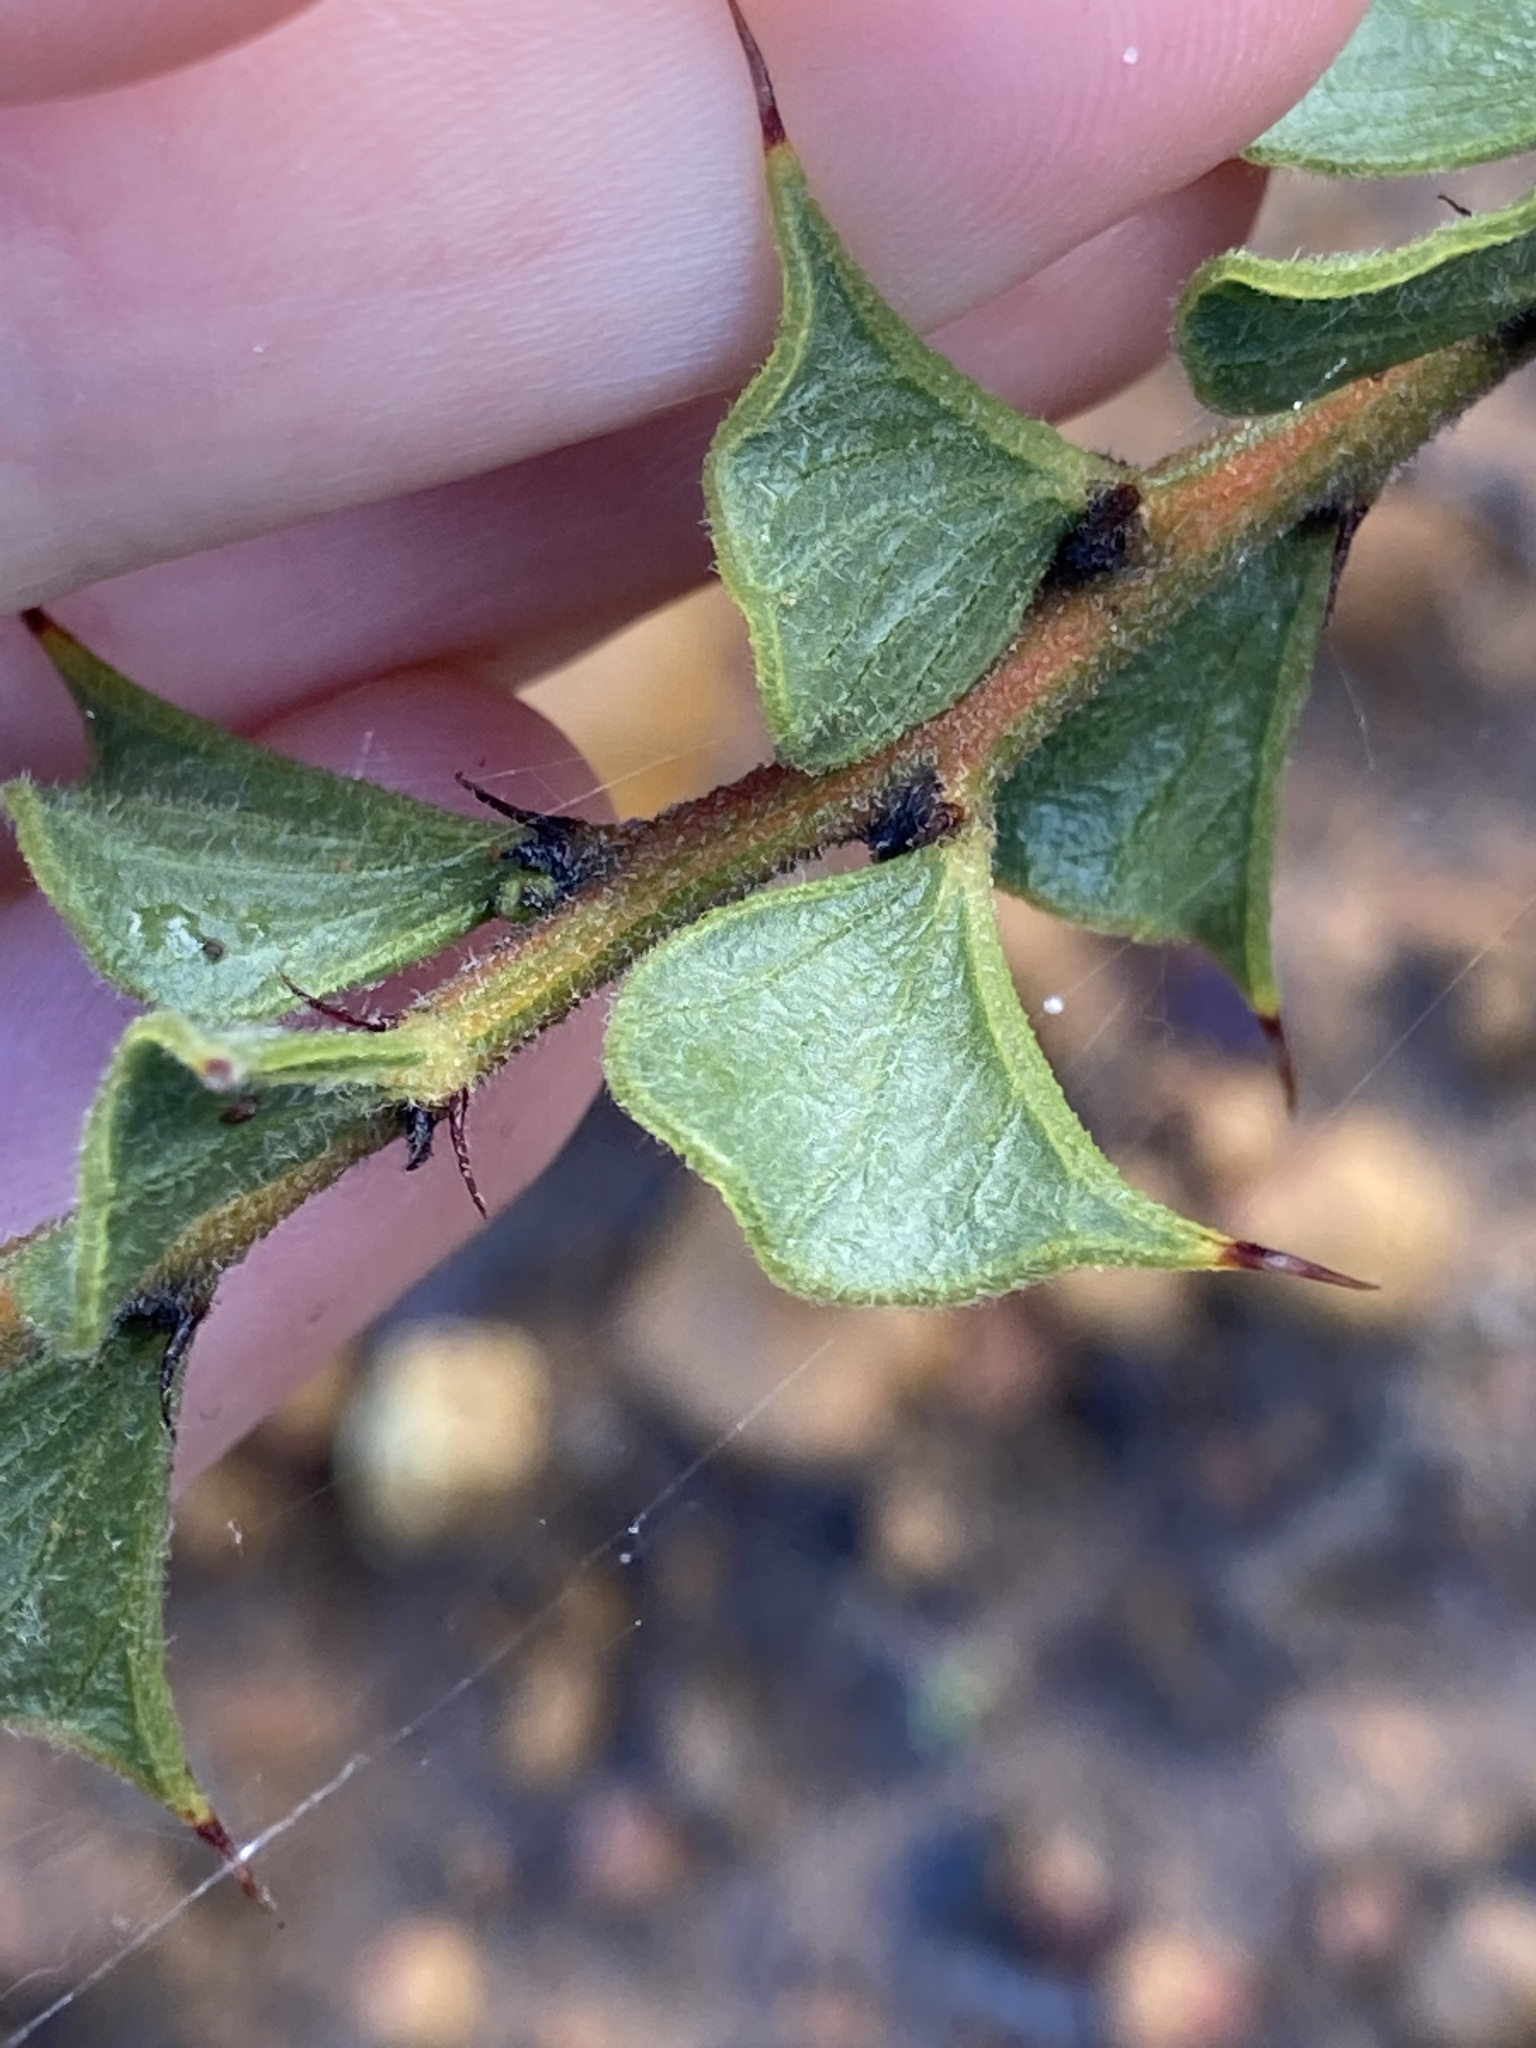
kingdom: Plantae
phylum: Tracheophyta
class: Magnoliopsida
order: Fabales
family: Fabaceae
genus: Acacia
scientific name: Acacia dilatata
